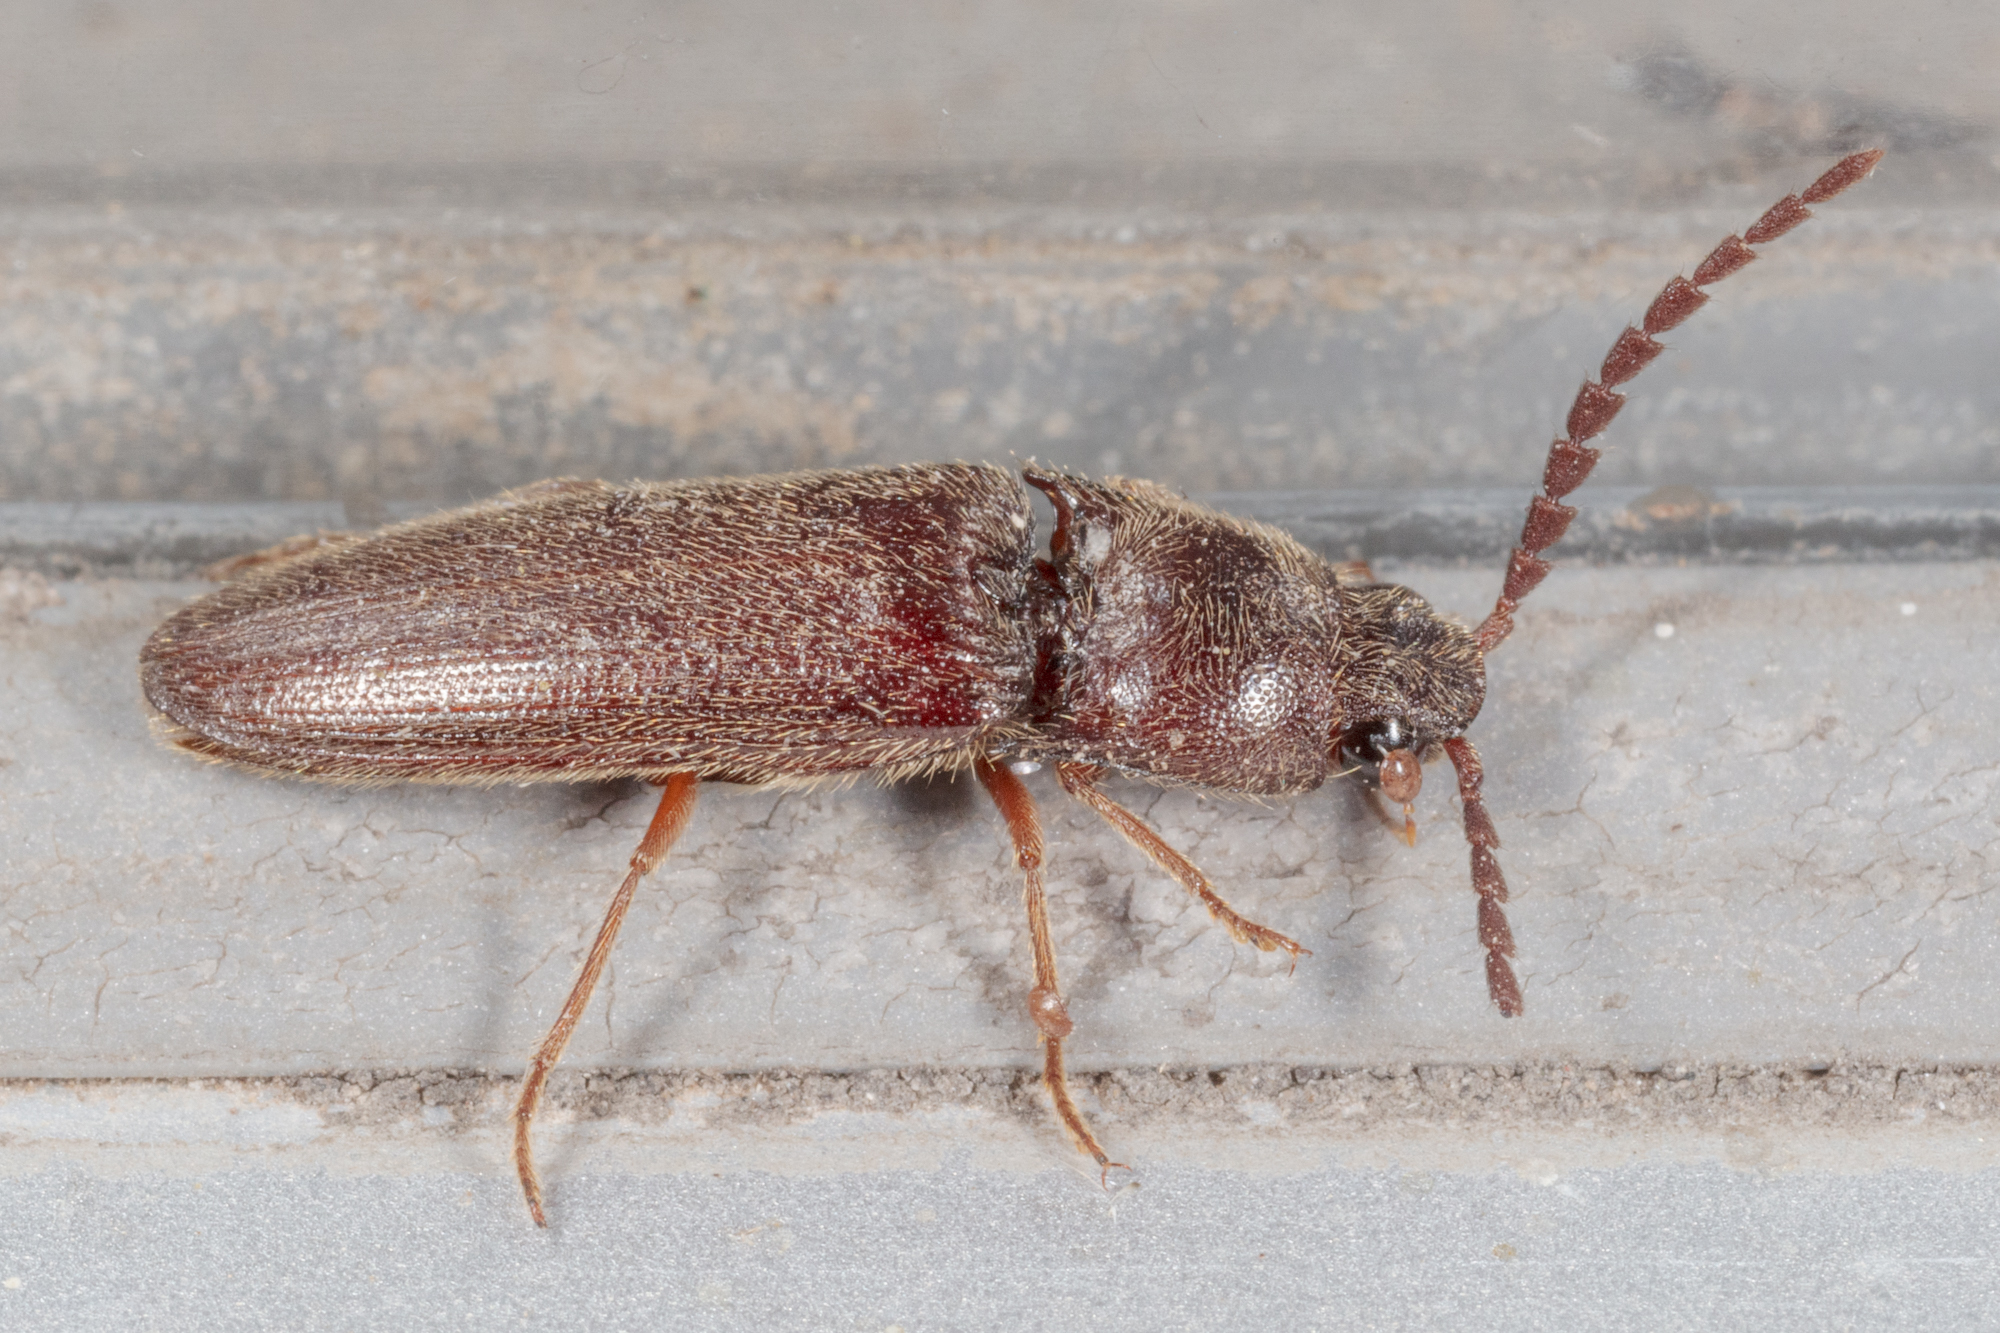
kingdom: Animalia
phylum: Arthropoda
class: Insecta
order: Coleoptera
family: Elateridae
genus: Dipropus
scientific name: Dipropus
